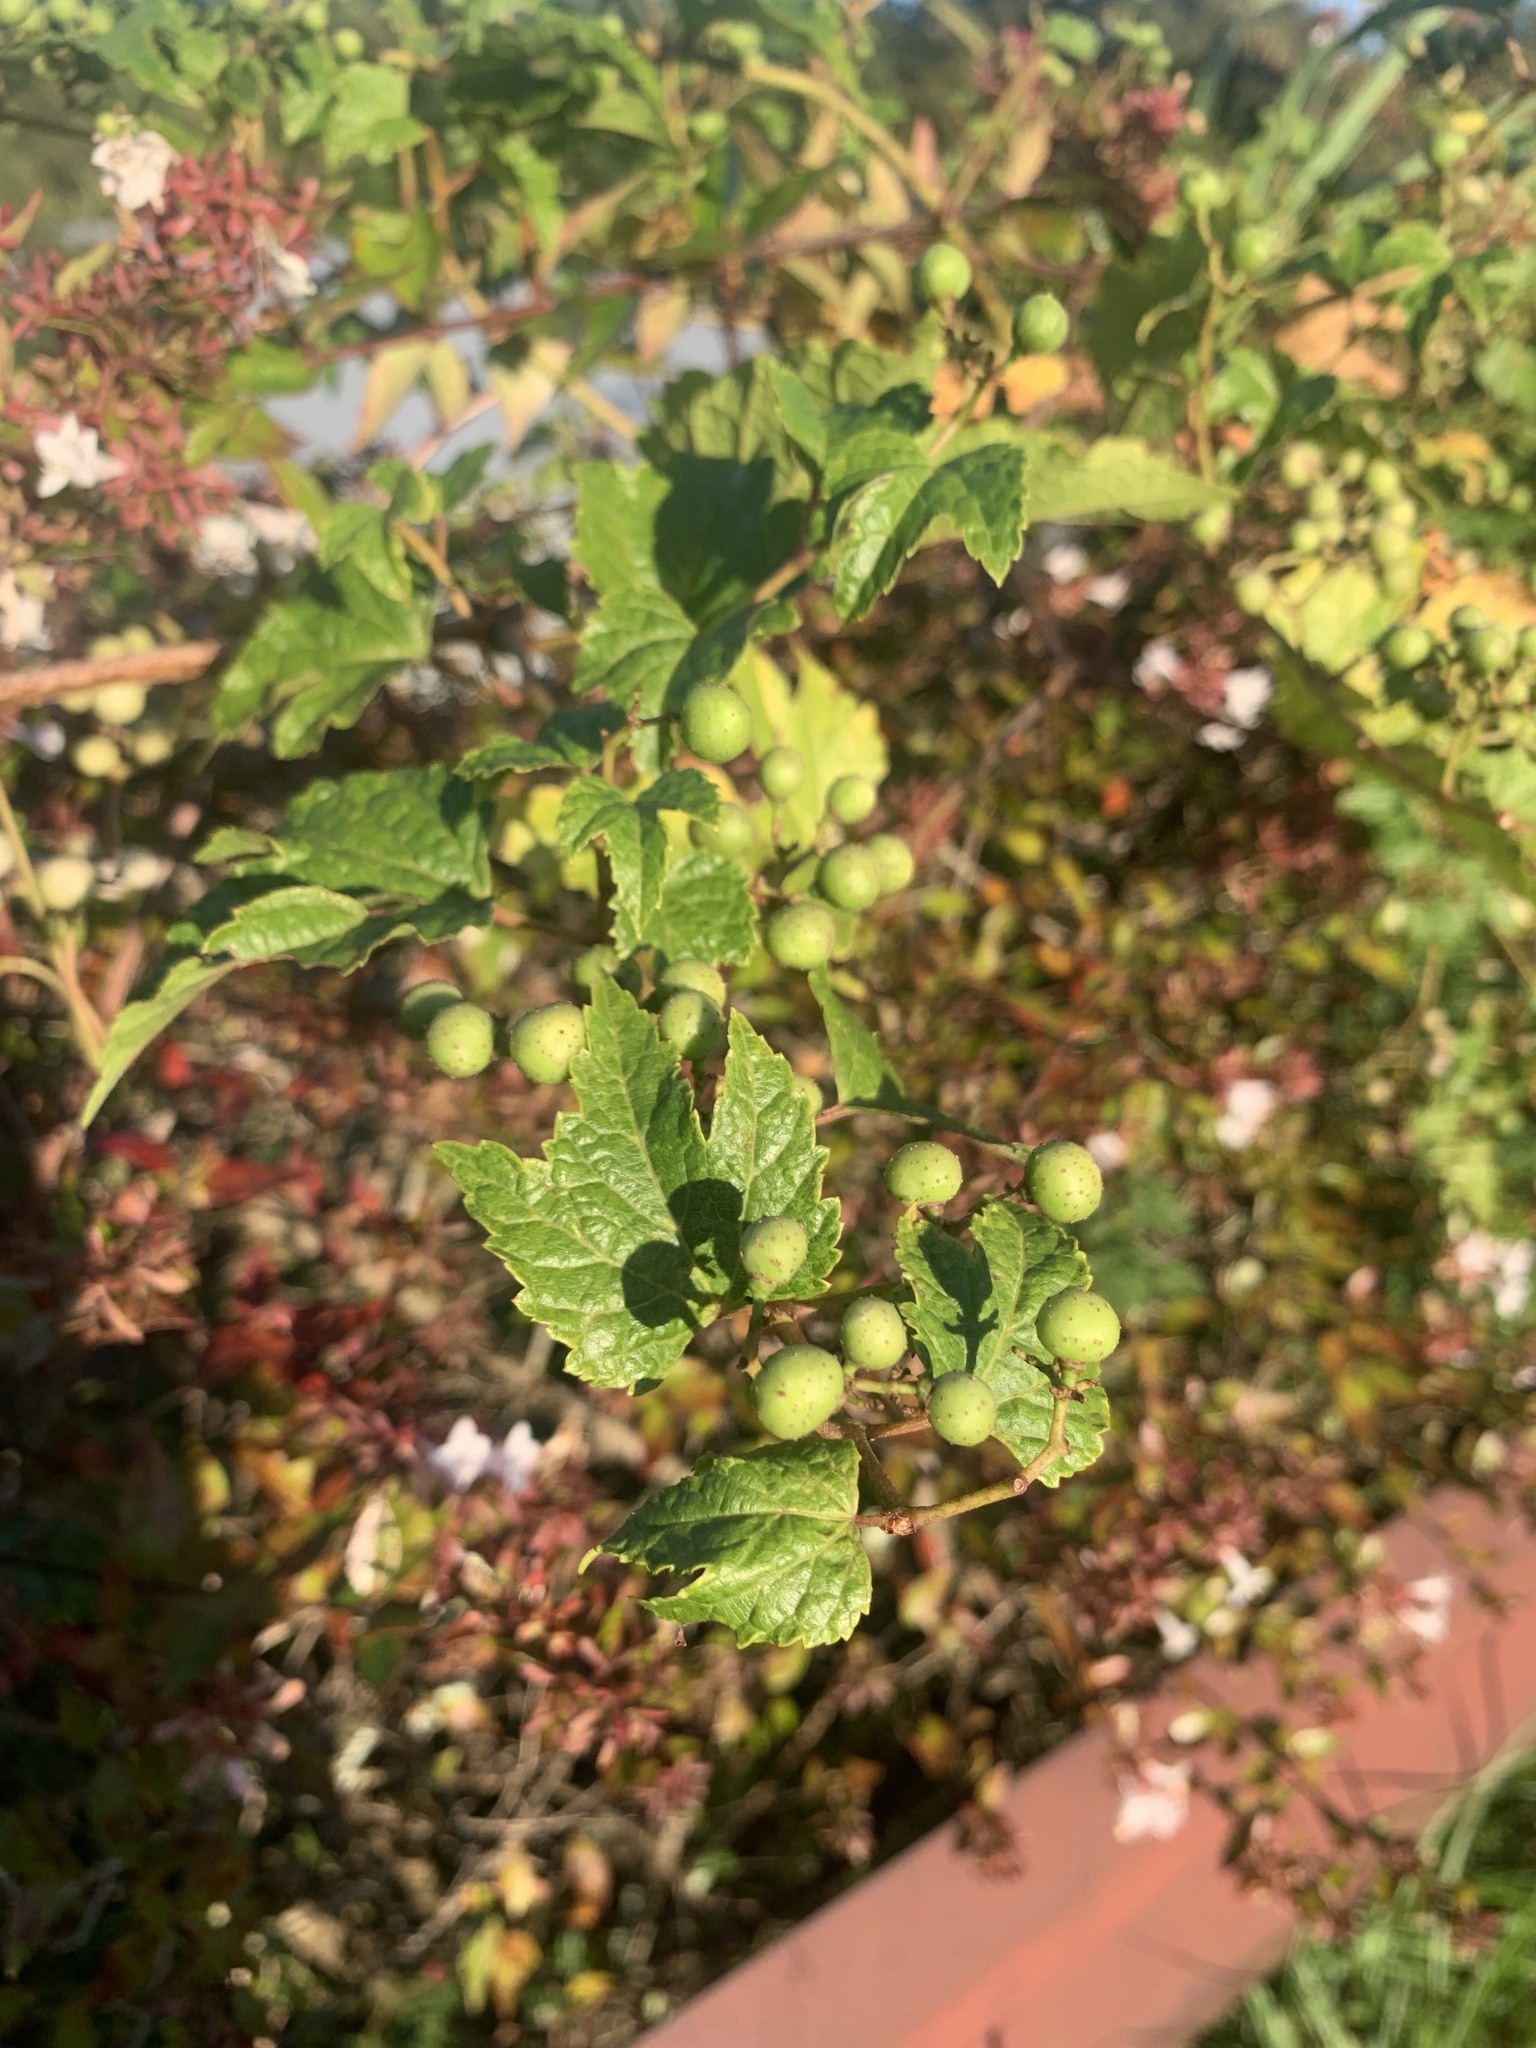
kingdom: Plantae
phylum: Tracheophyta
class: Magnoliopsida
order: Vitales
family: Vitaceae
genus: Ampelopsis
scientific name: Ampelopsis glandulosa
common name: Amur peppervine
